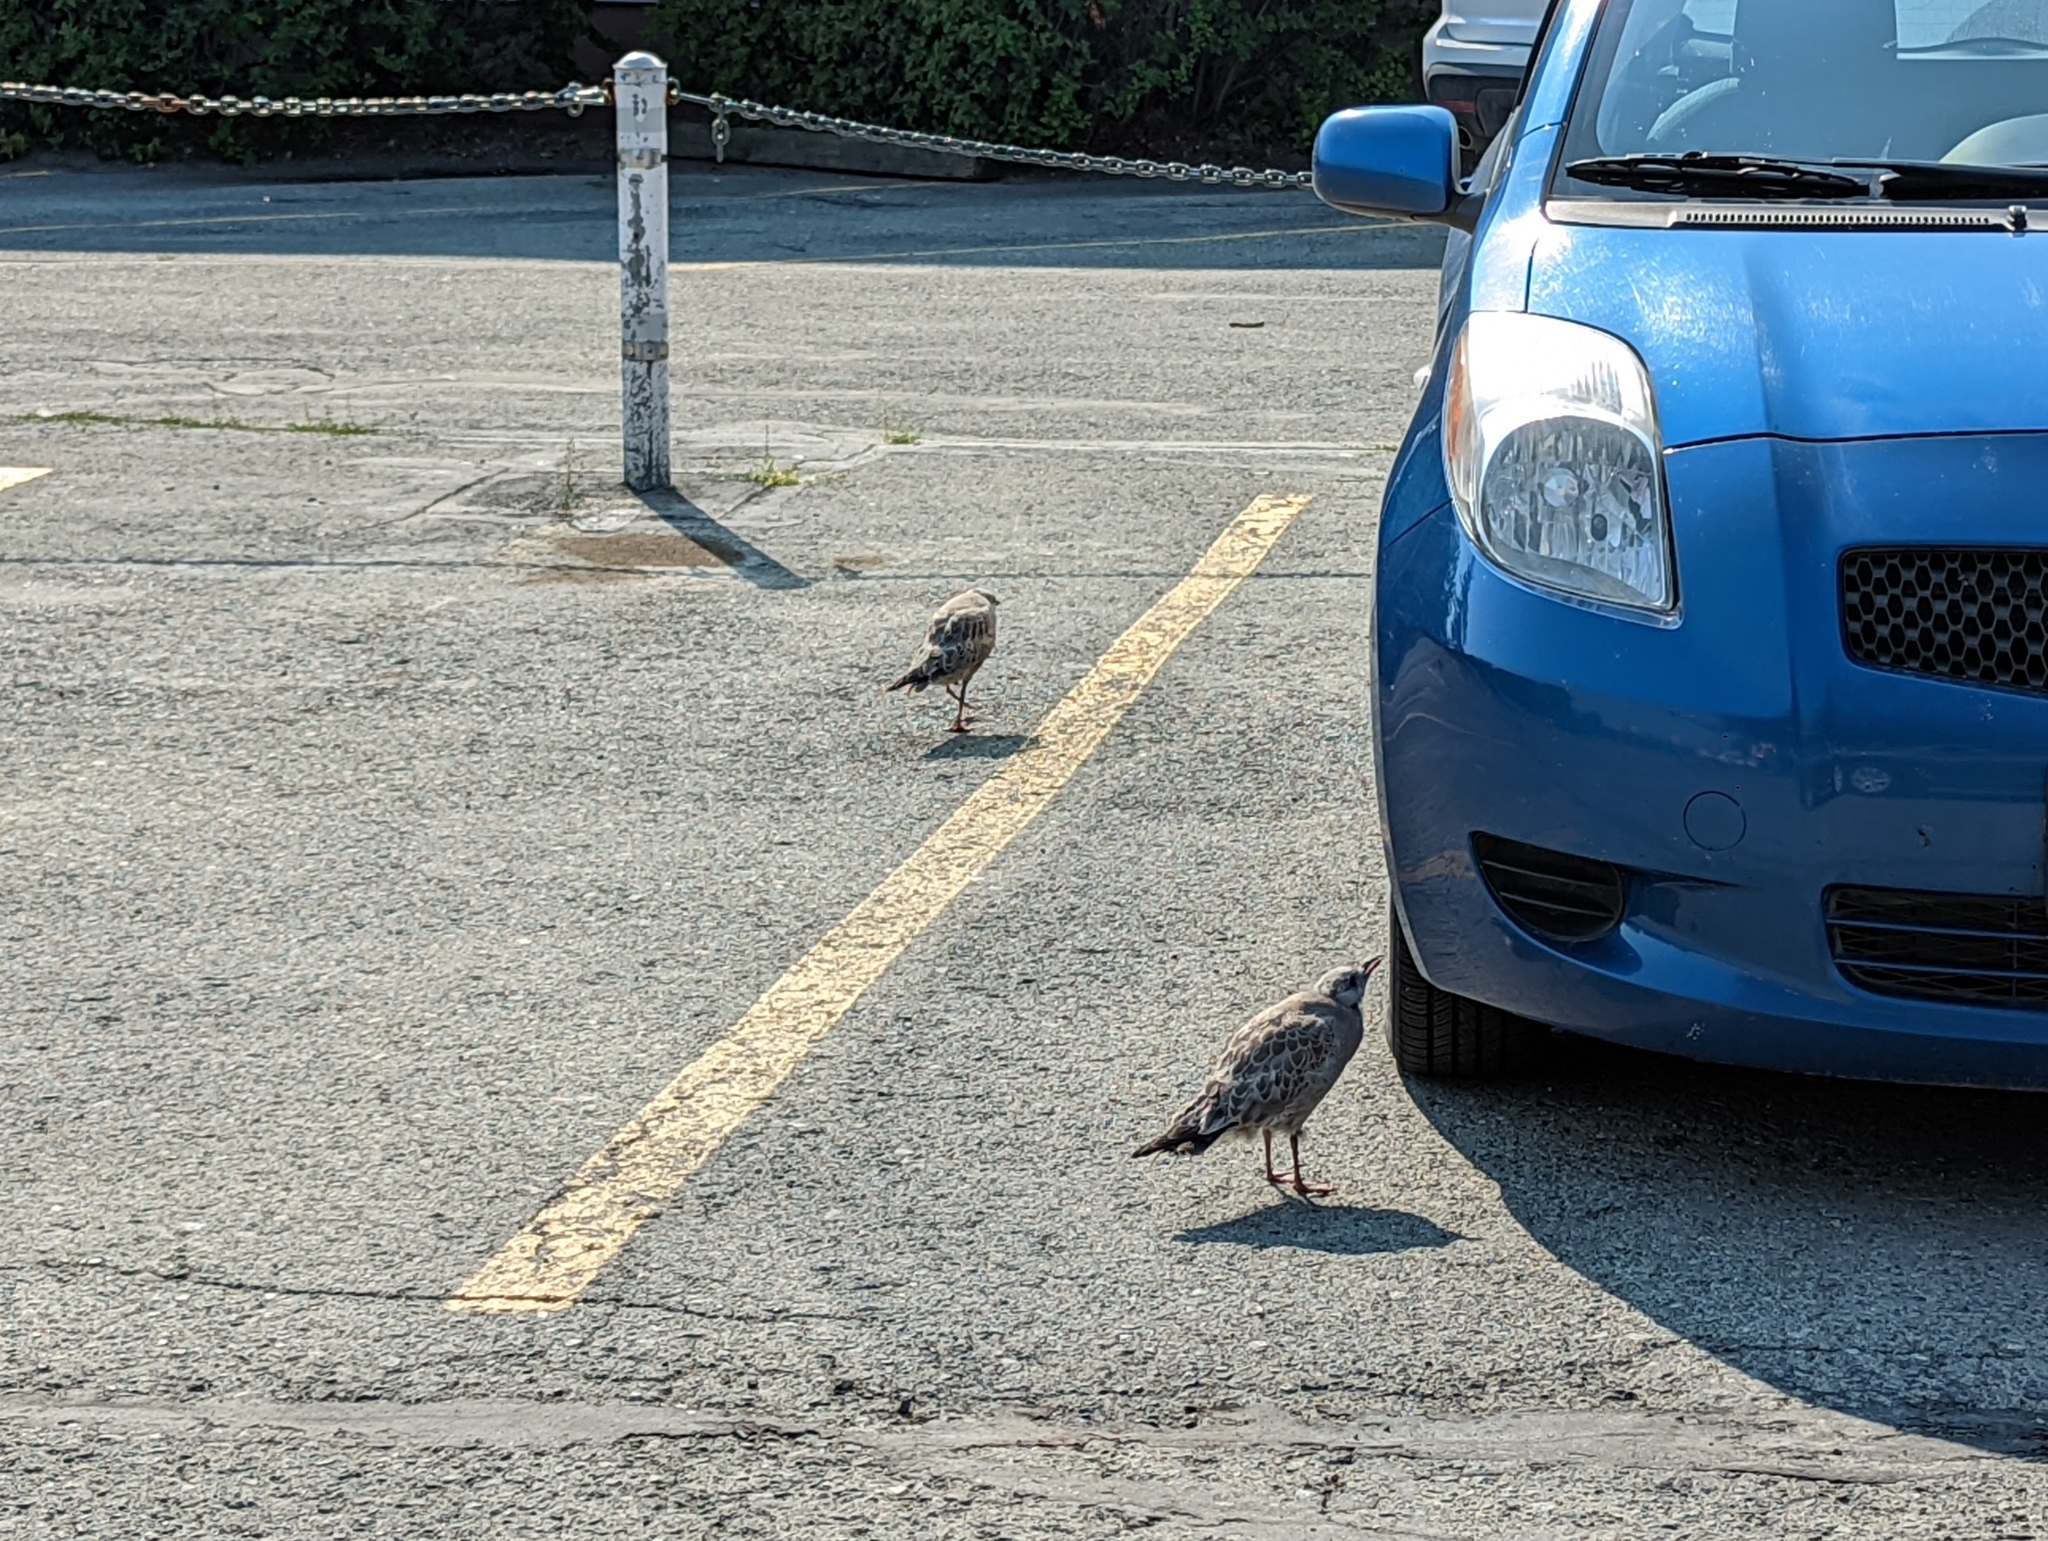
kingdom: Animalia
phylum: Chordata
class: Aves
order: Charadriiformes
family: Laridae
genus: Larus
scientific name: Larus brachyrhynchus
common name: Short-billed gull
